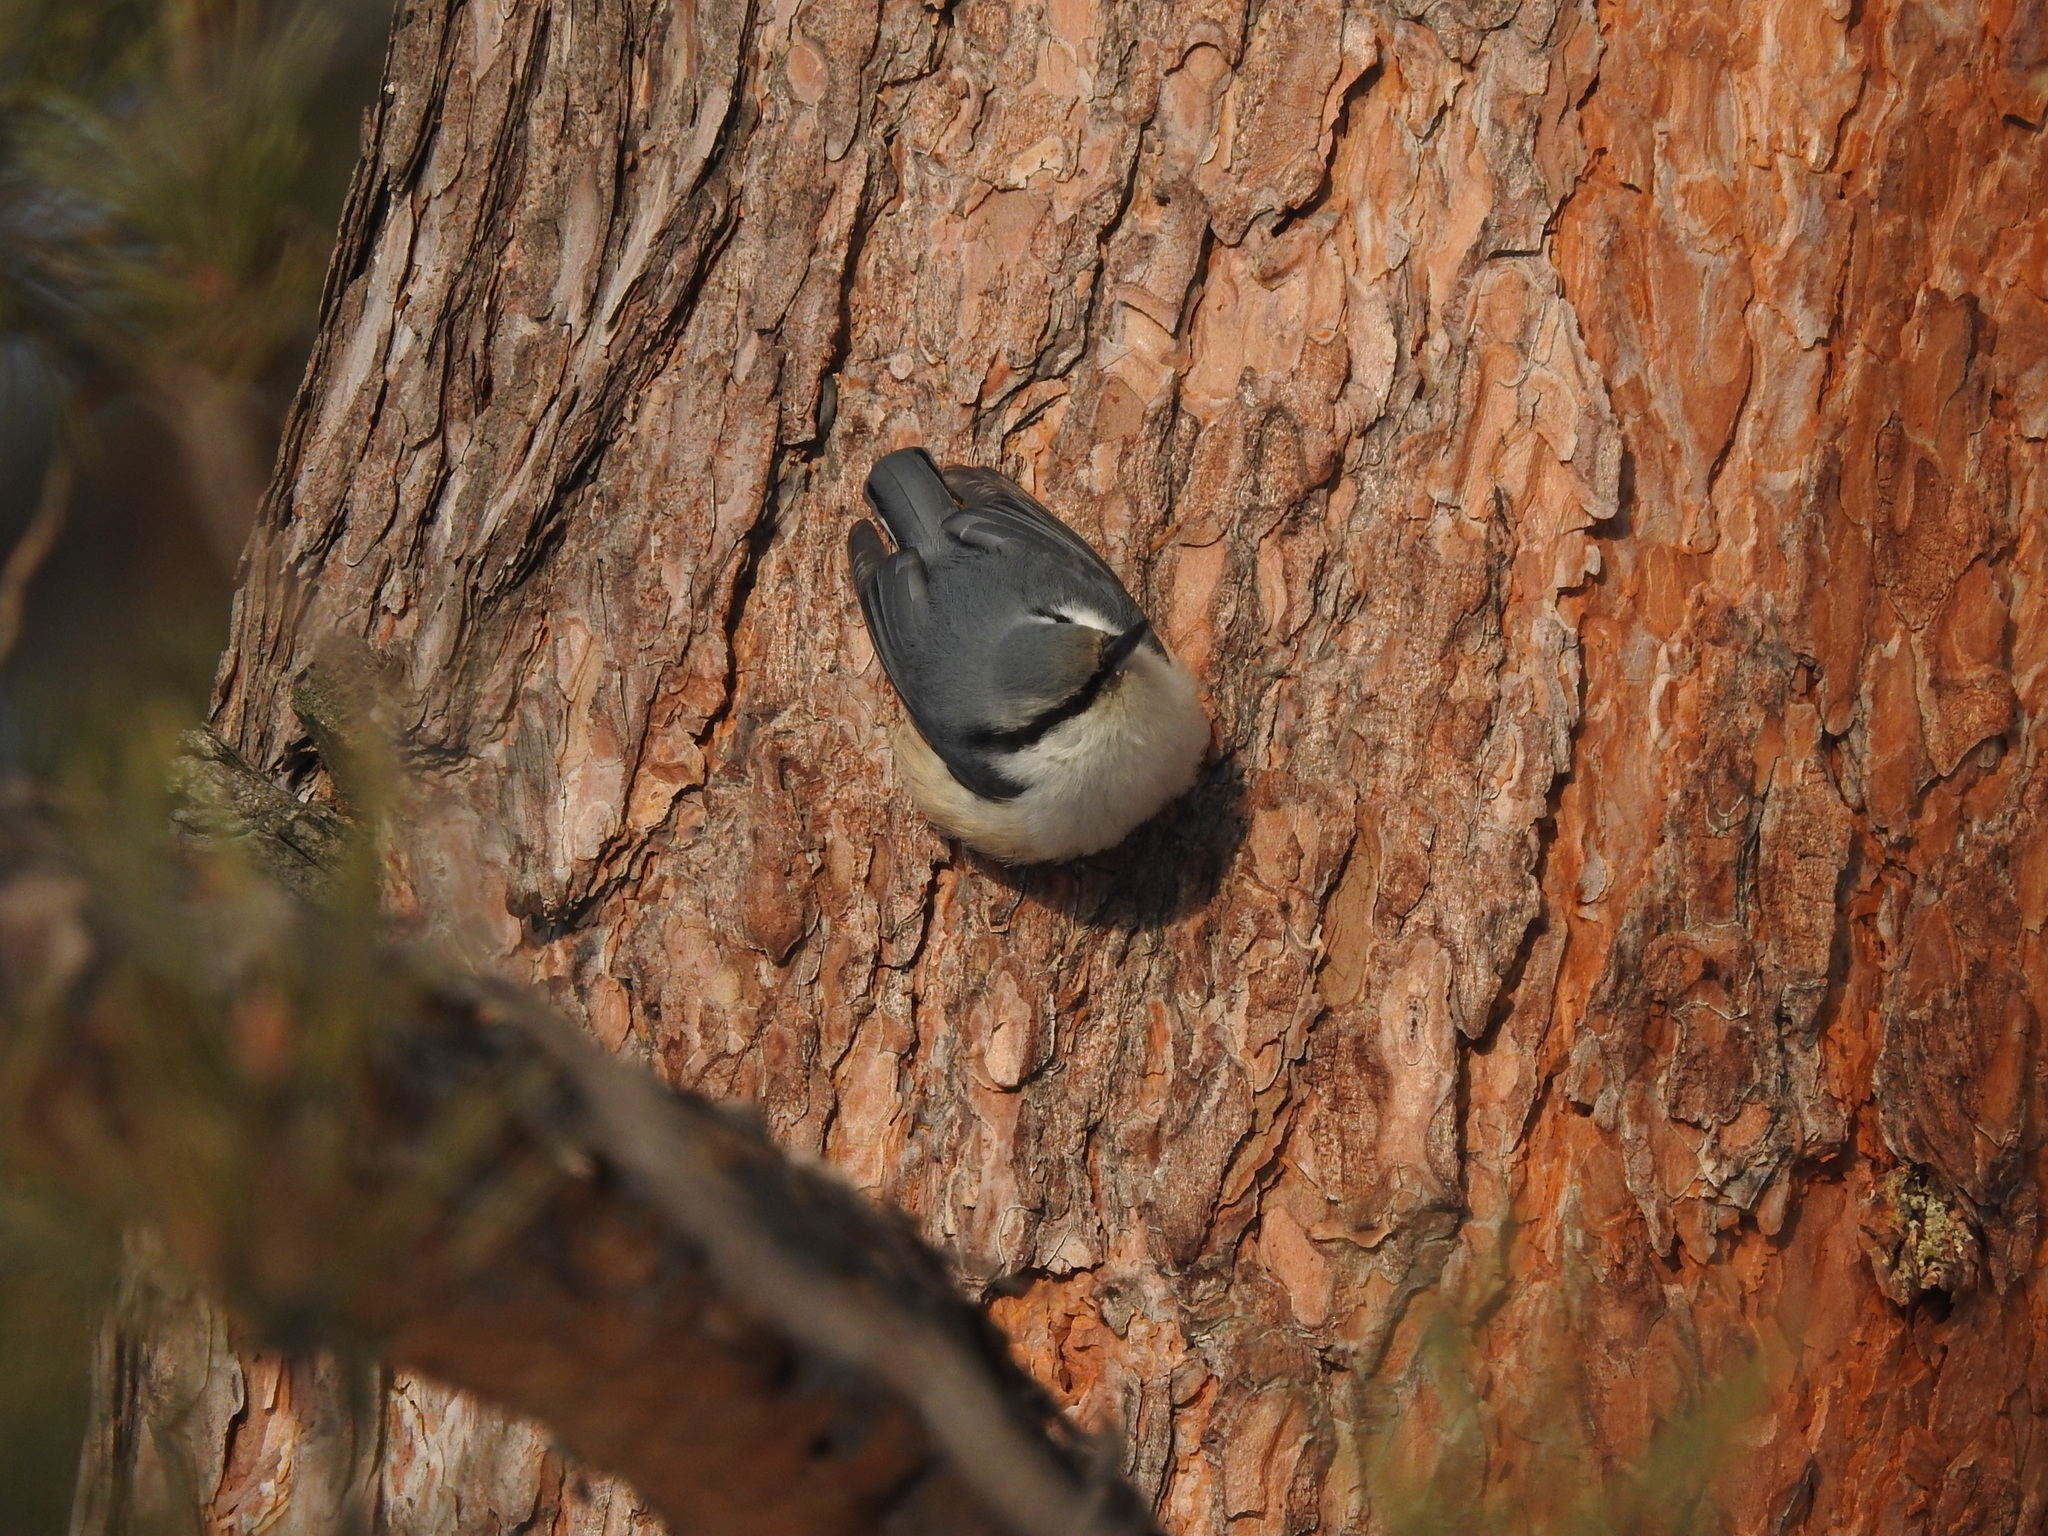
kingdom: Animalia
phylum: Chordata
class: Aves
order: Passeriformes
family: Sittidae
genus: Sitta
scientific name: Sitta europaea
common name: Eurasian nuthatch
